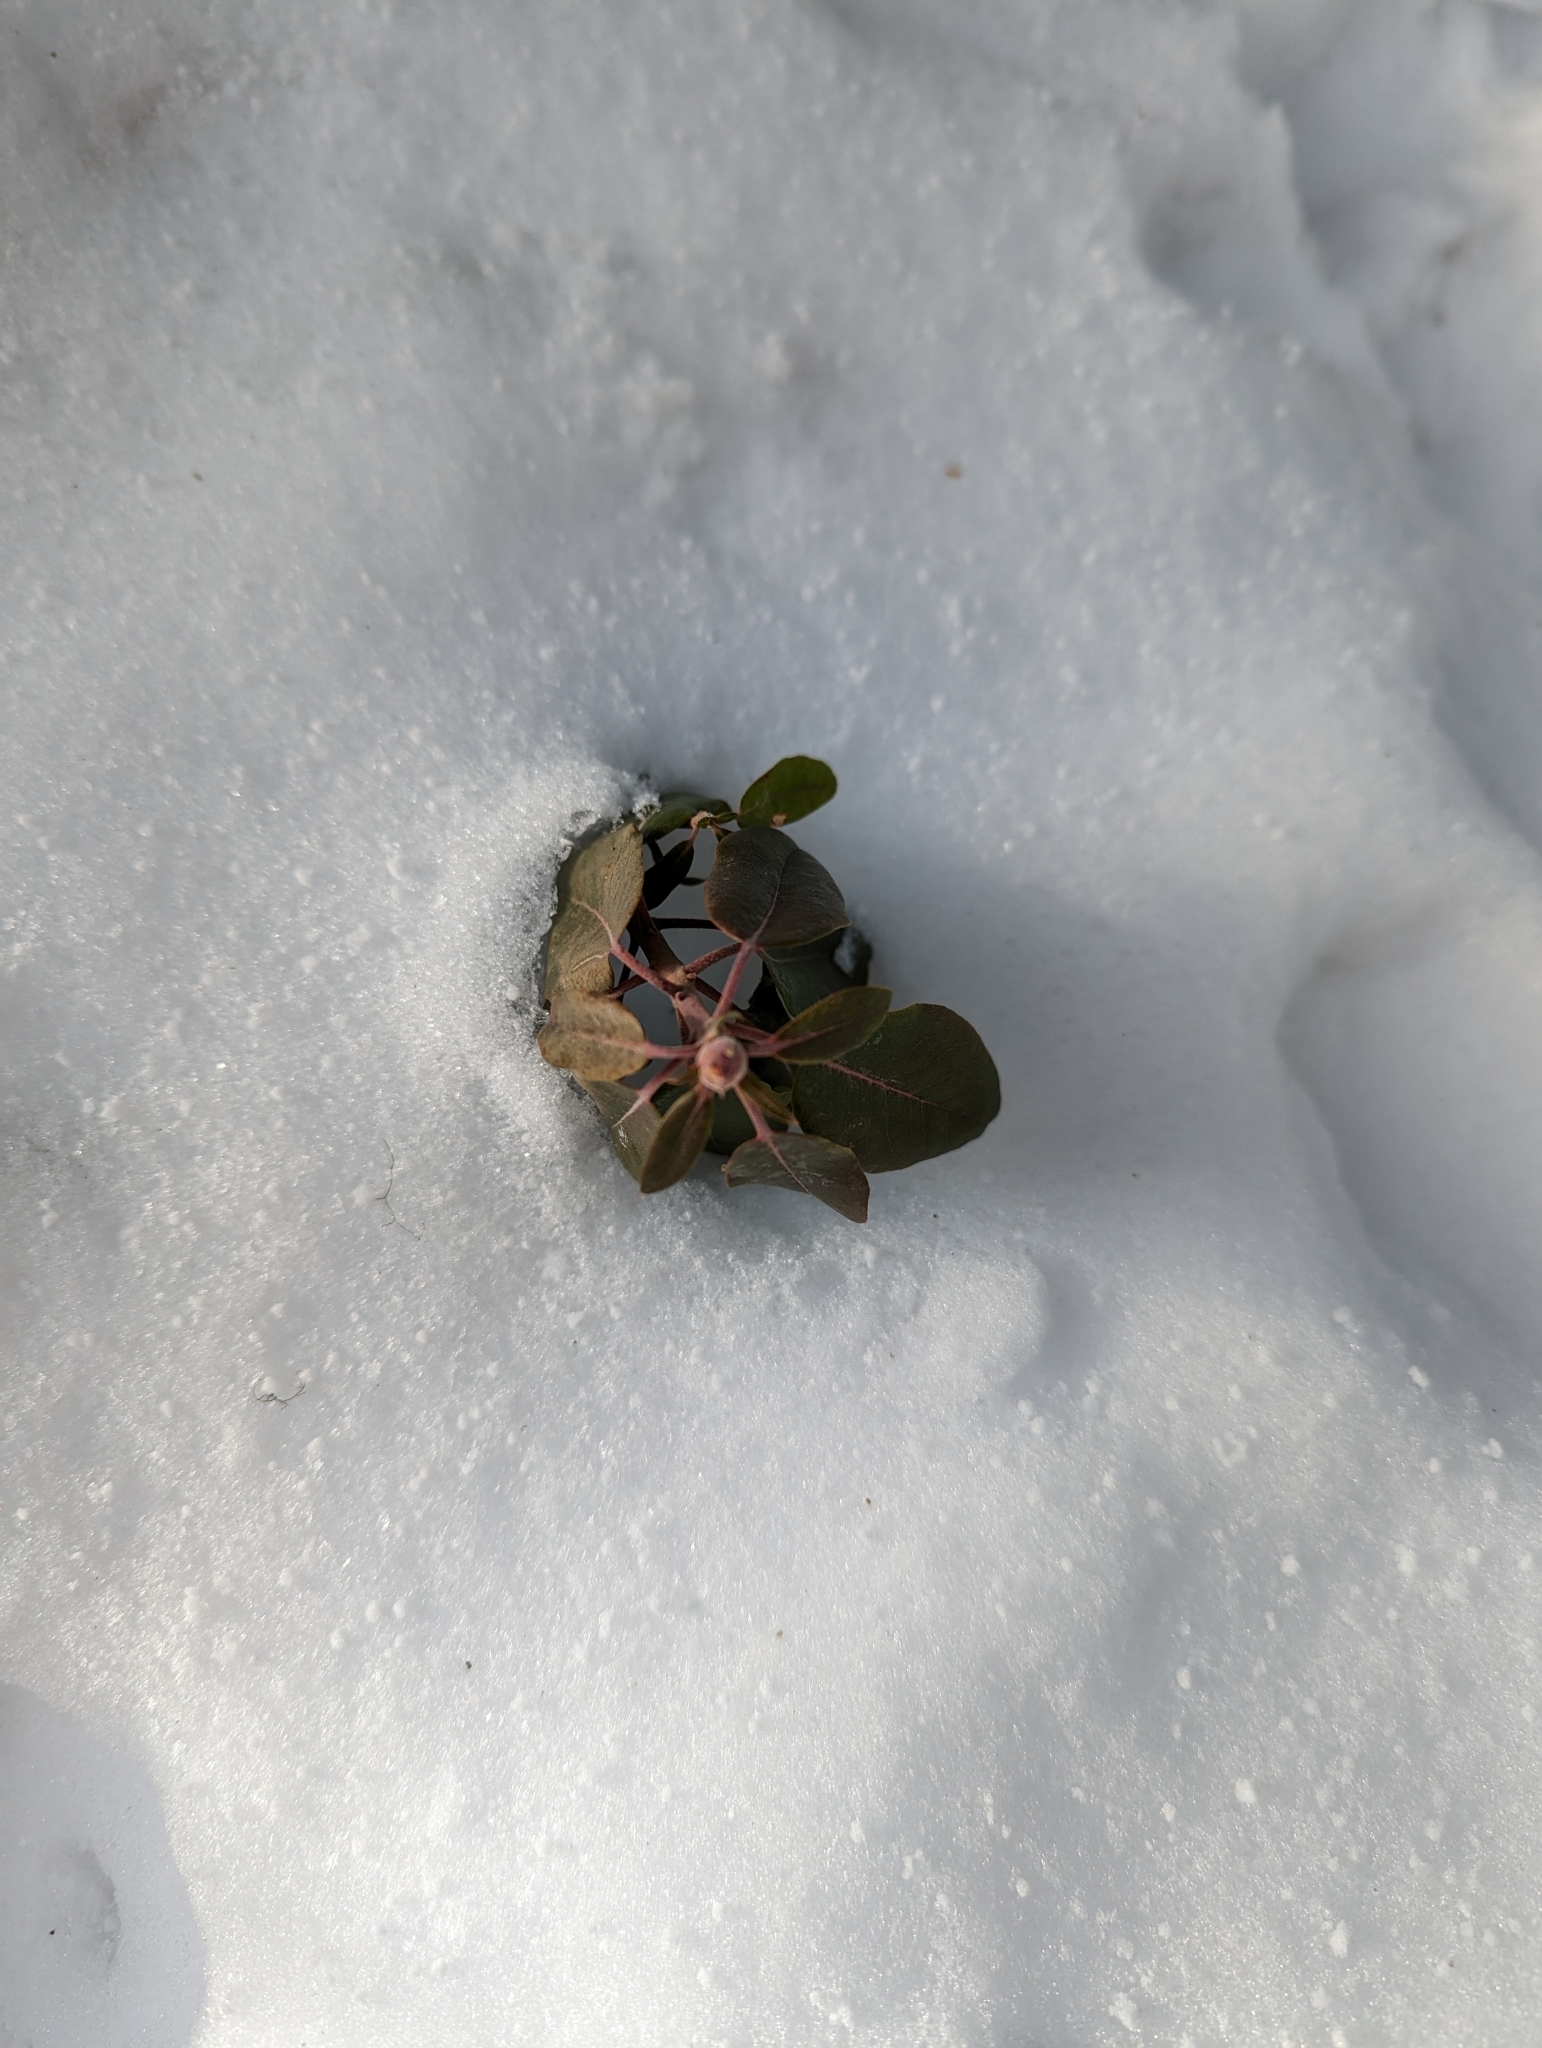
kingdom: Plantae
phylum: Tracheophyta
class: Magnoliopsida
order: Ericales
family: Ericaceae
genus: Rhododendron
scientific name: Rhododendron columbianum
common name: Western labrador tea
